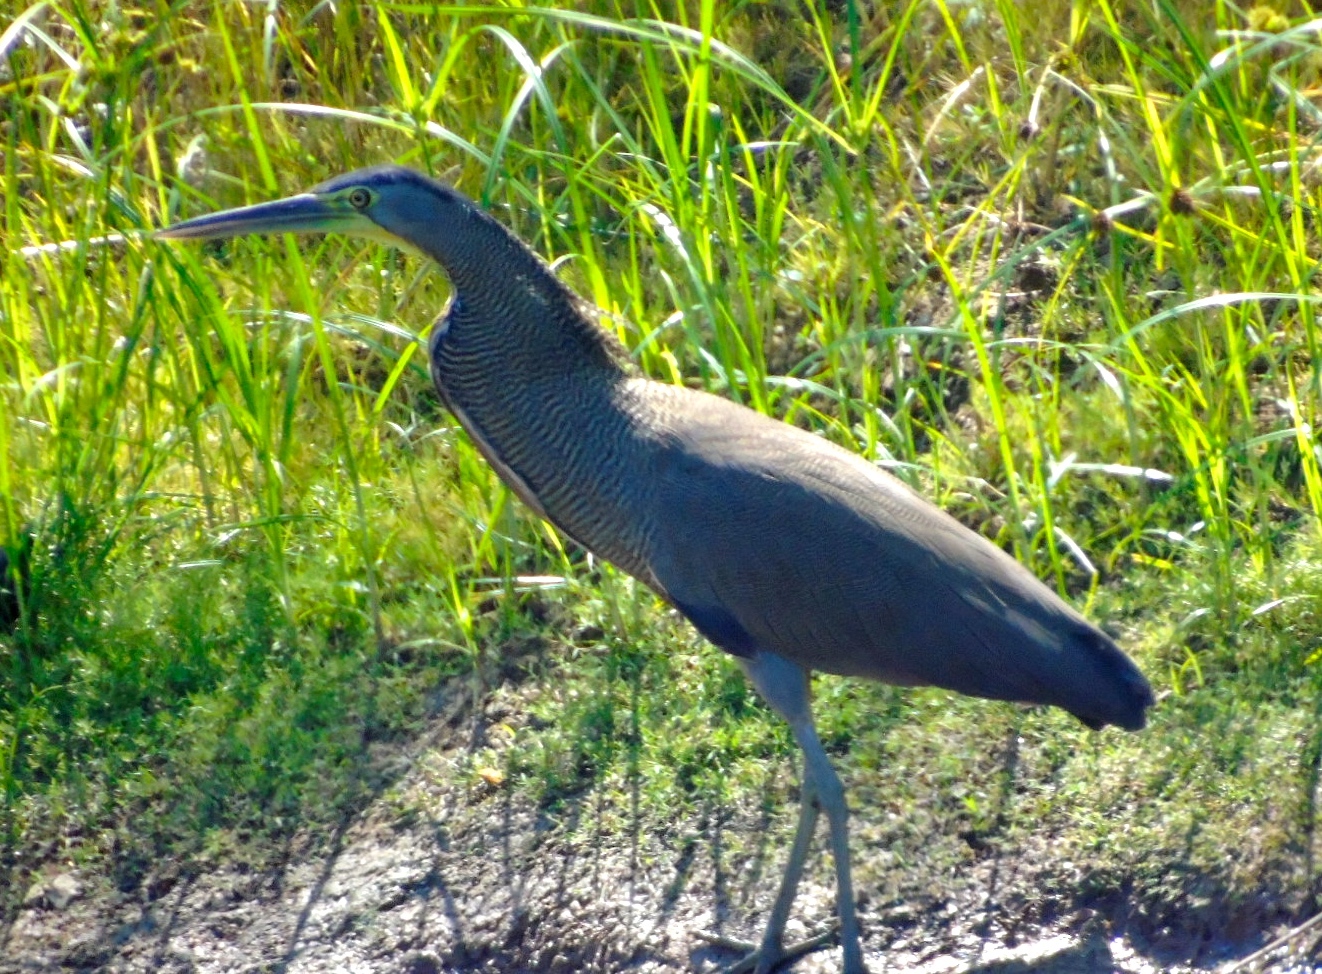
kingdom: Animalia
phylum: Chordata
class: Aves
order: Pelecaniformes
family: Ardeidae
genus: Tigrisoma
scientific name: Tigrisoma mexicanum
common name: Bare-throated tiger-heron
